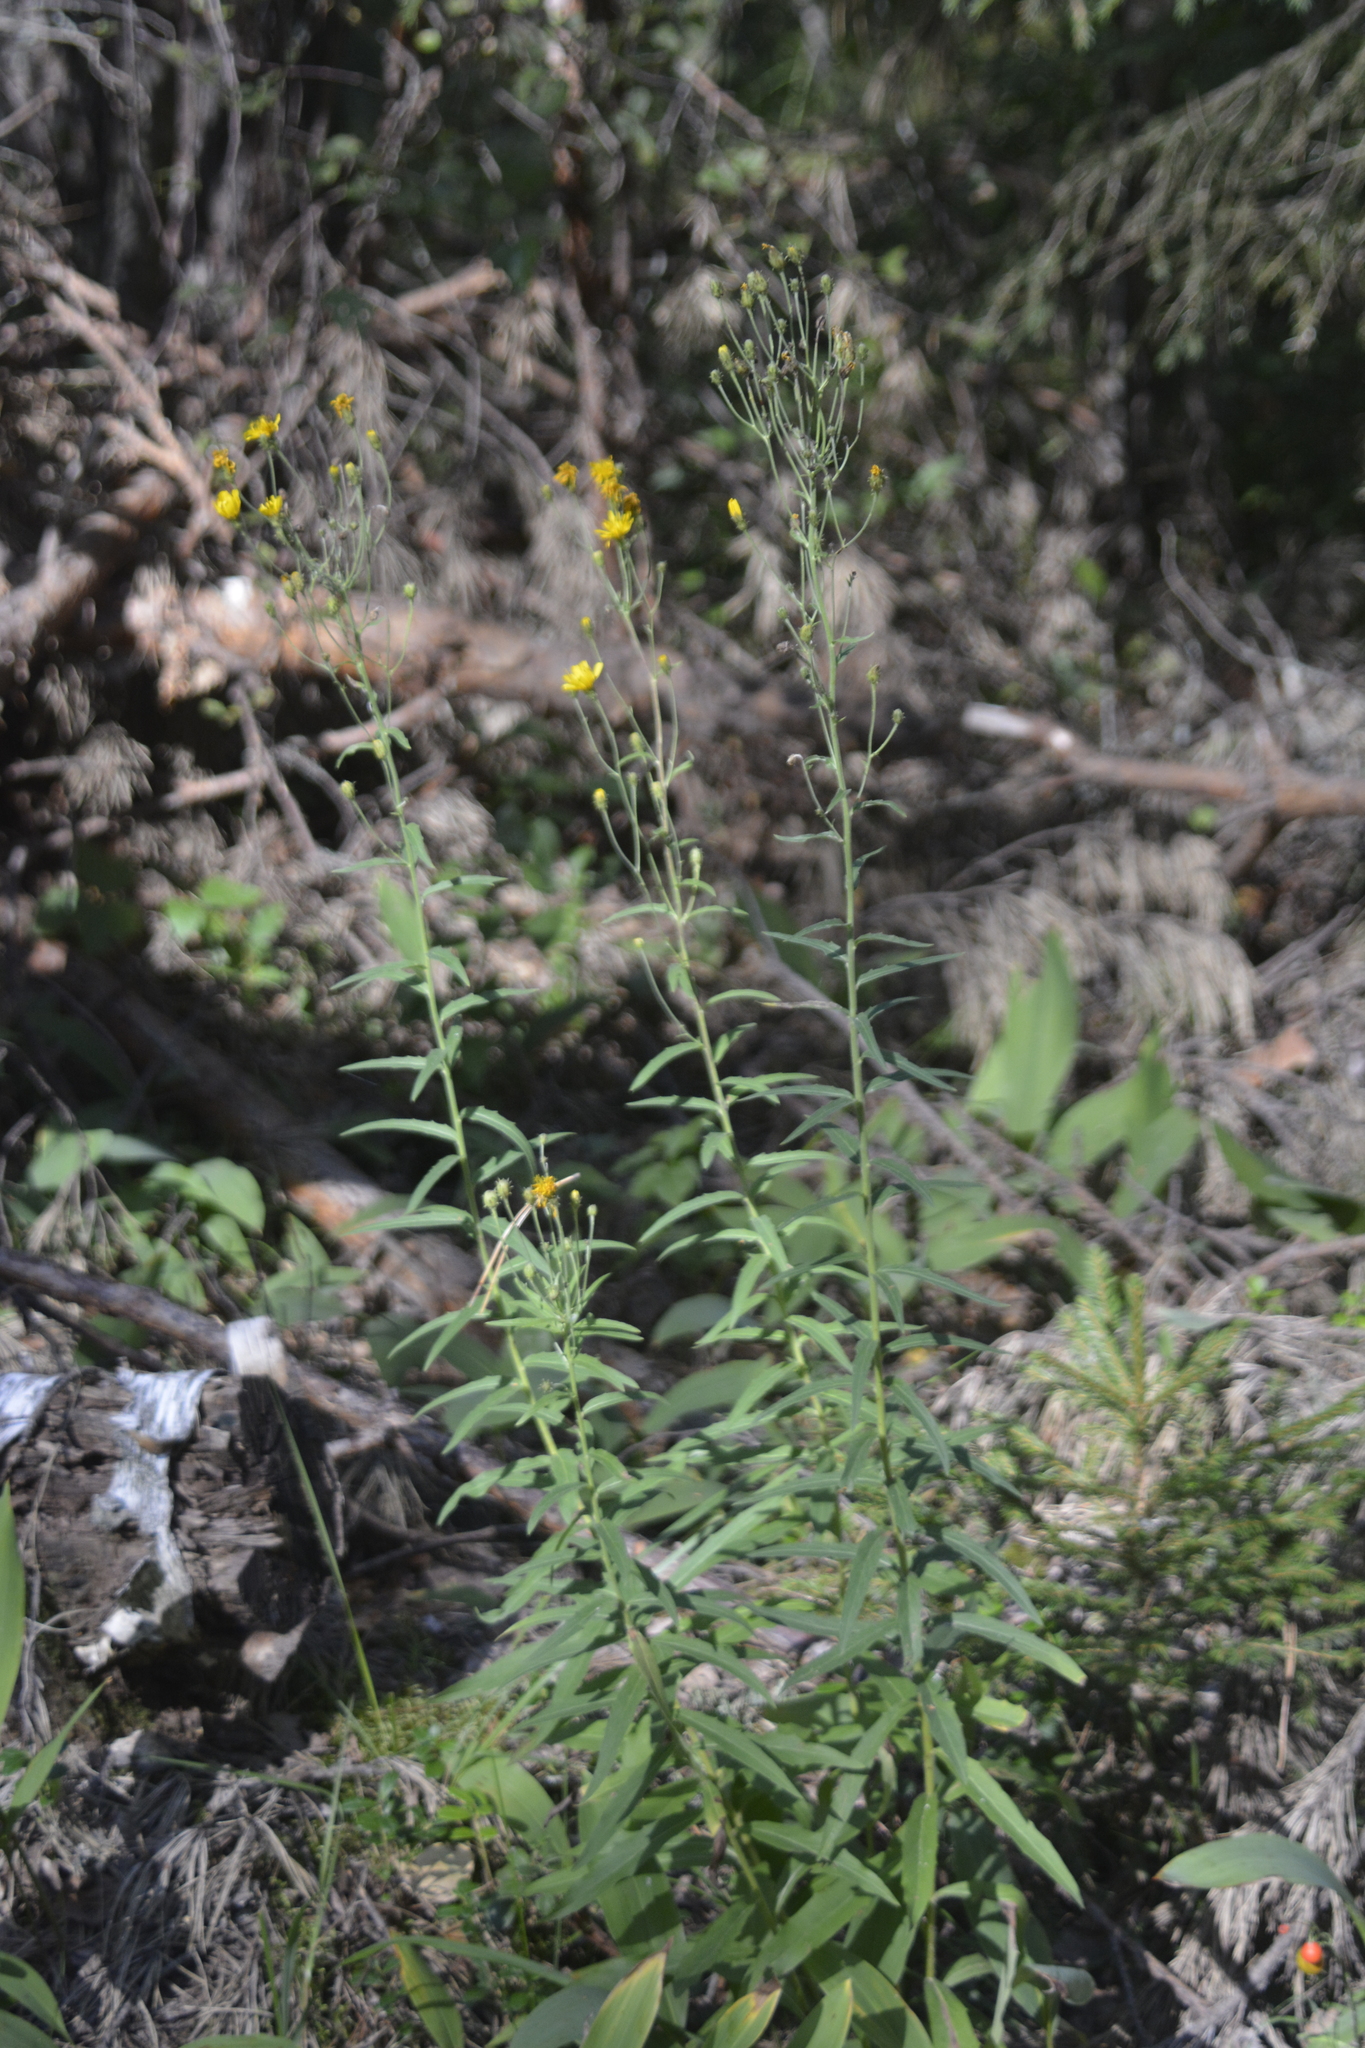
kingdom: Plantae
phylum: Tracheophyta
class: Magnoliopsida
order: Asterales
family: Asteraceae
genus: Hieracium
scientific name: Hieracium umbellatum
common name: Northern hawkweed
